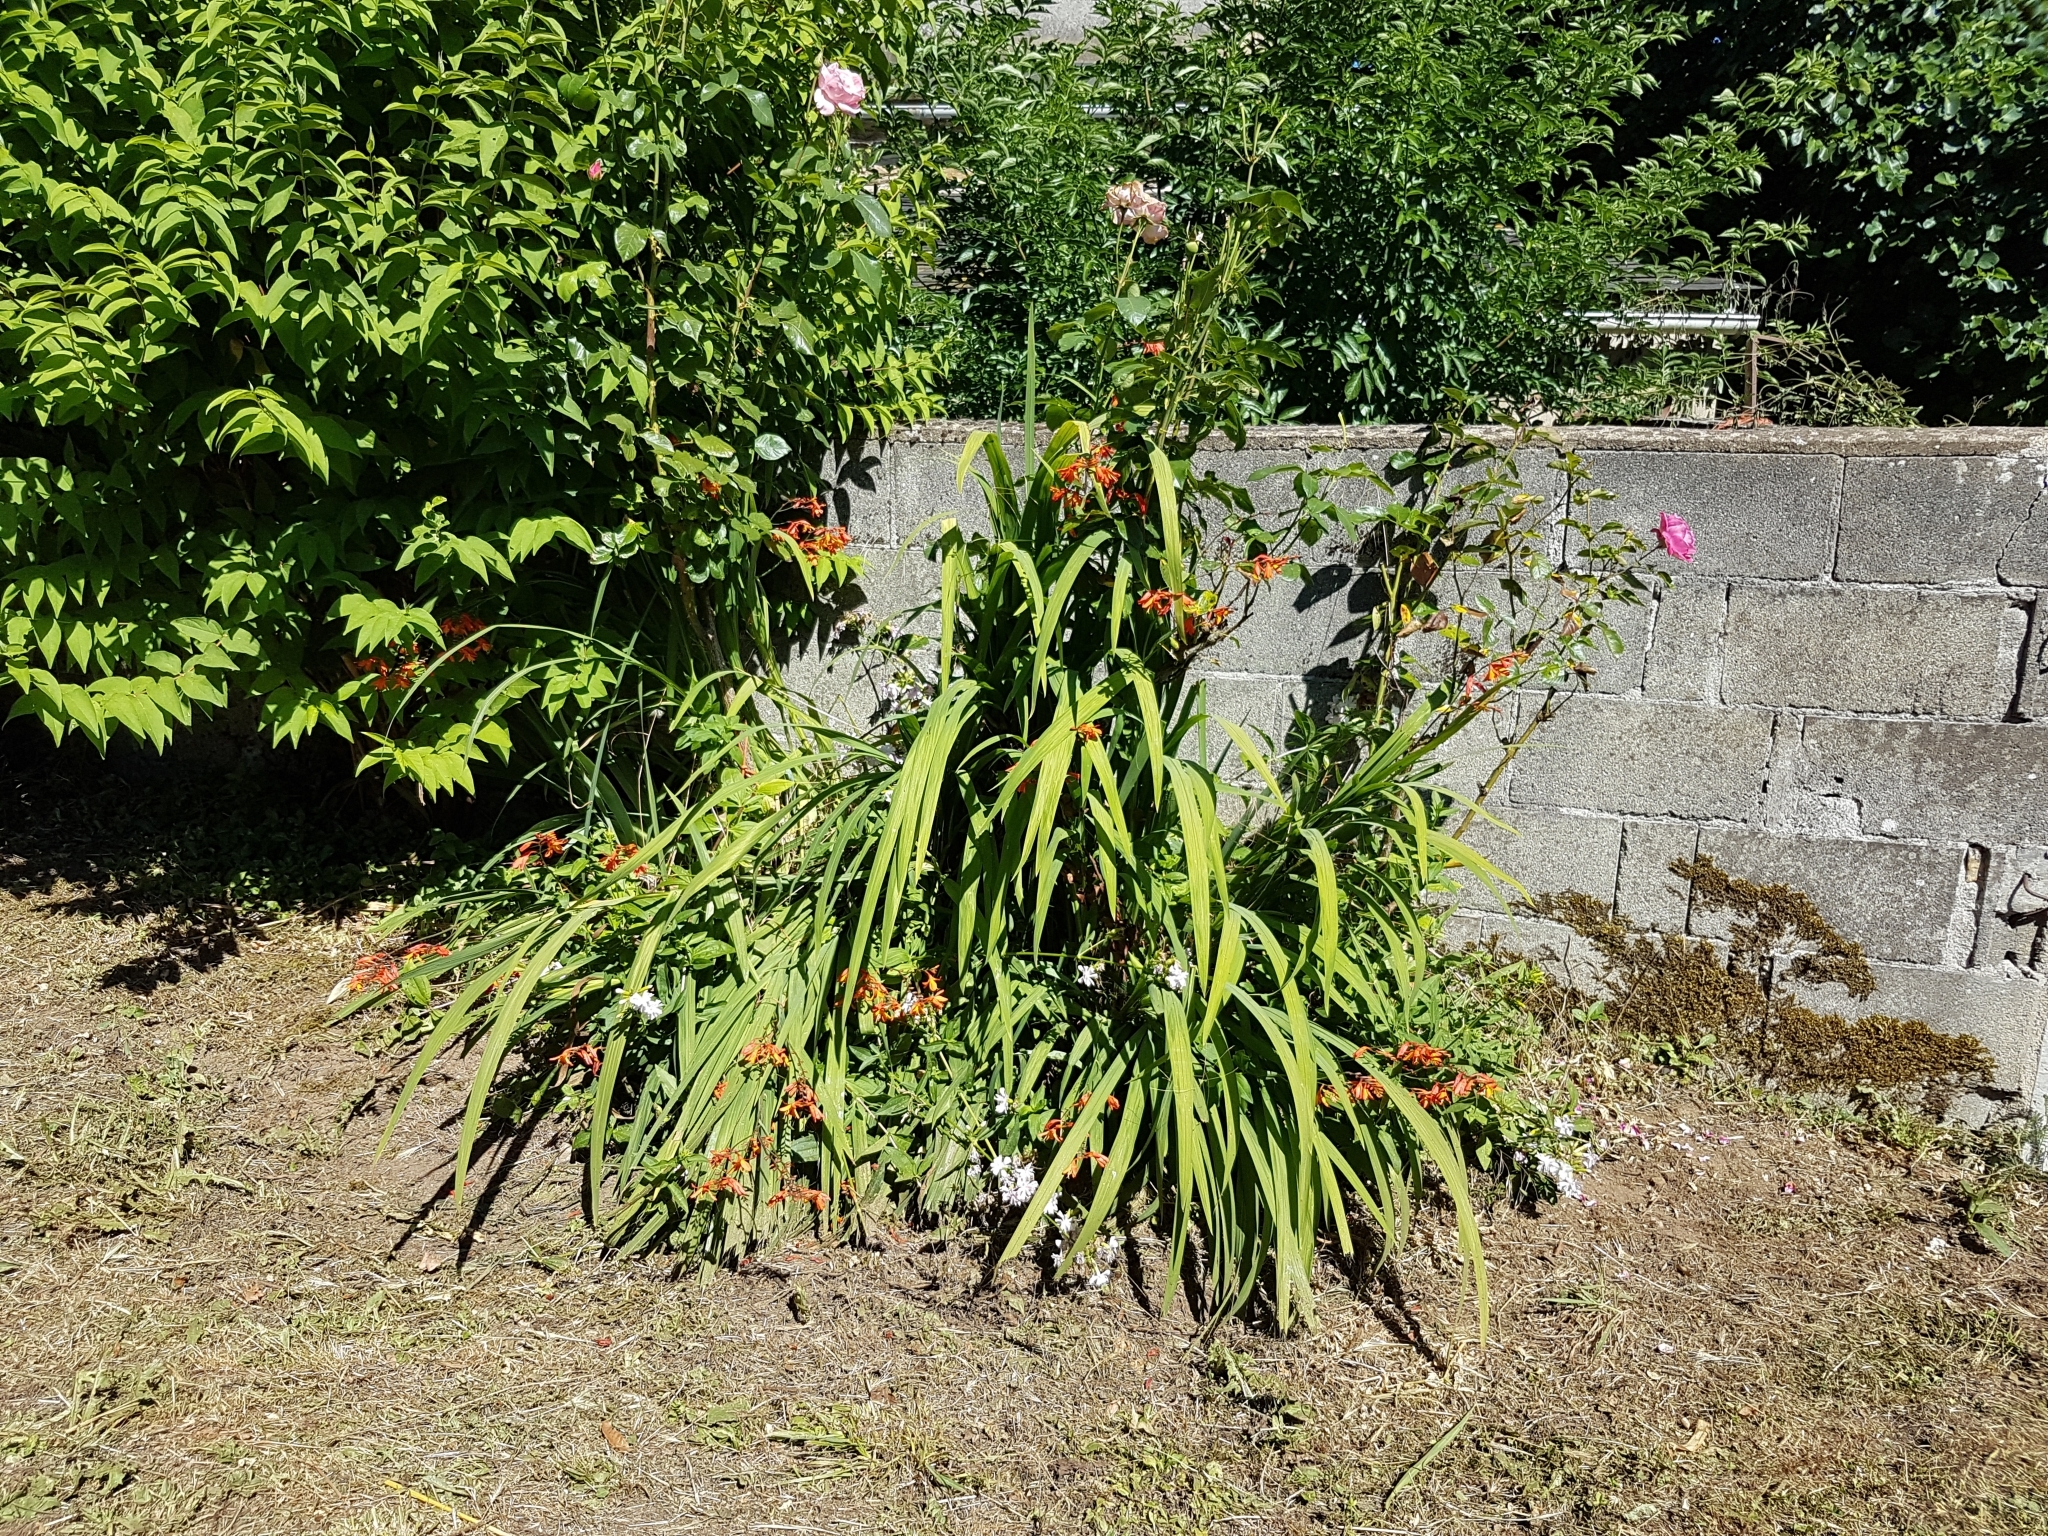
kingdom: Plantae
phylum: Tracheophyta
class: Liliopsida
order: Asparagales
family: Iridaceae
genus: Crocosmia
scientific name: Crocosmia crocosmiiflora
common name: Montbretia
